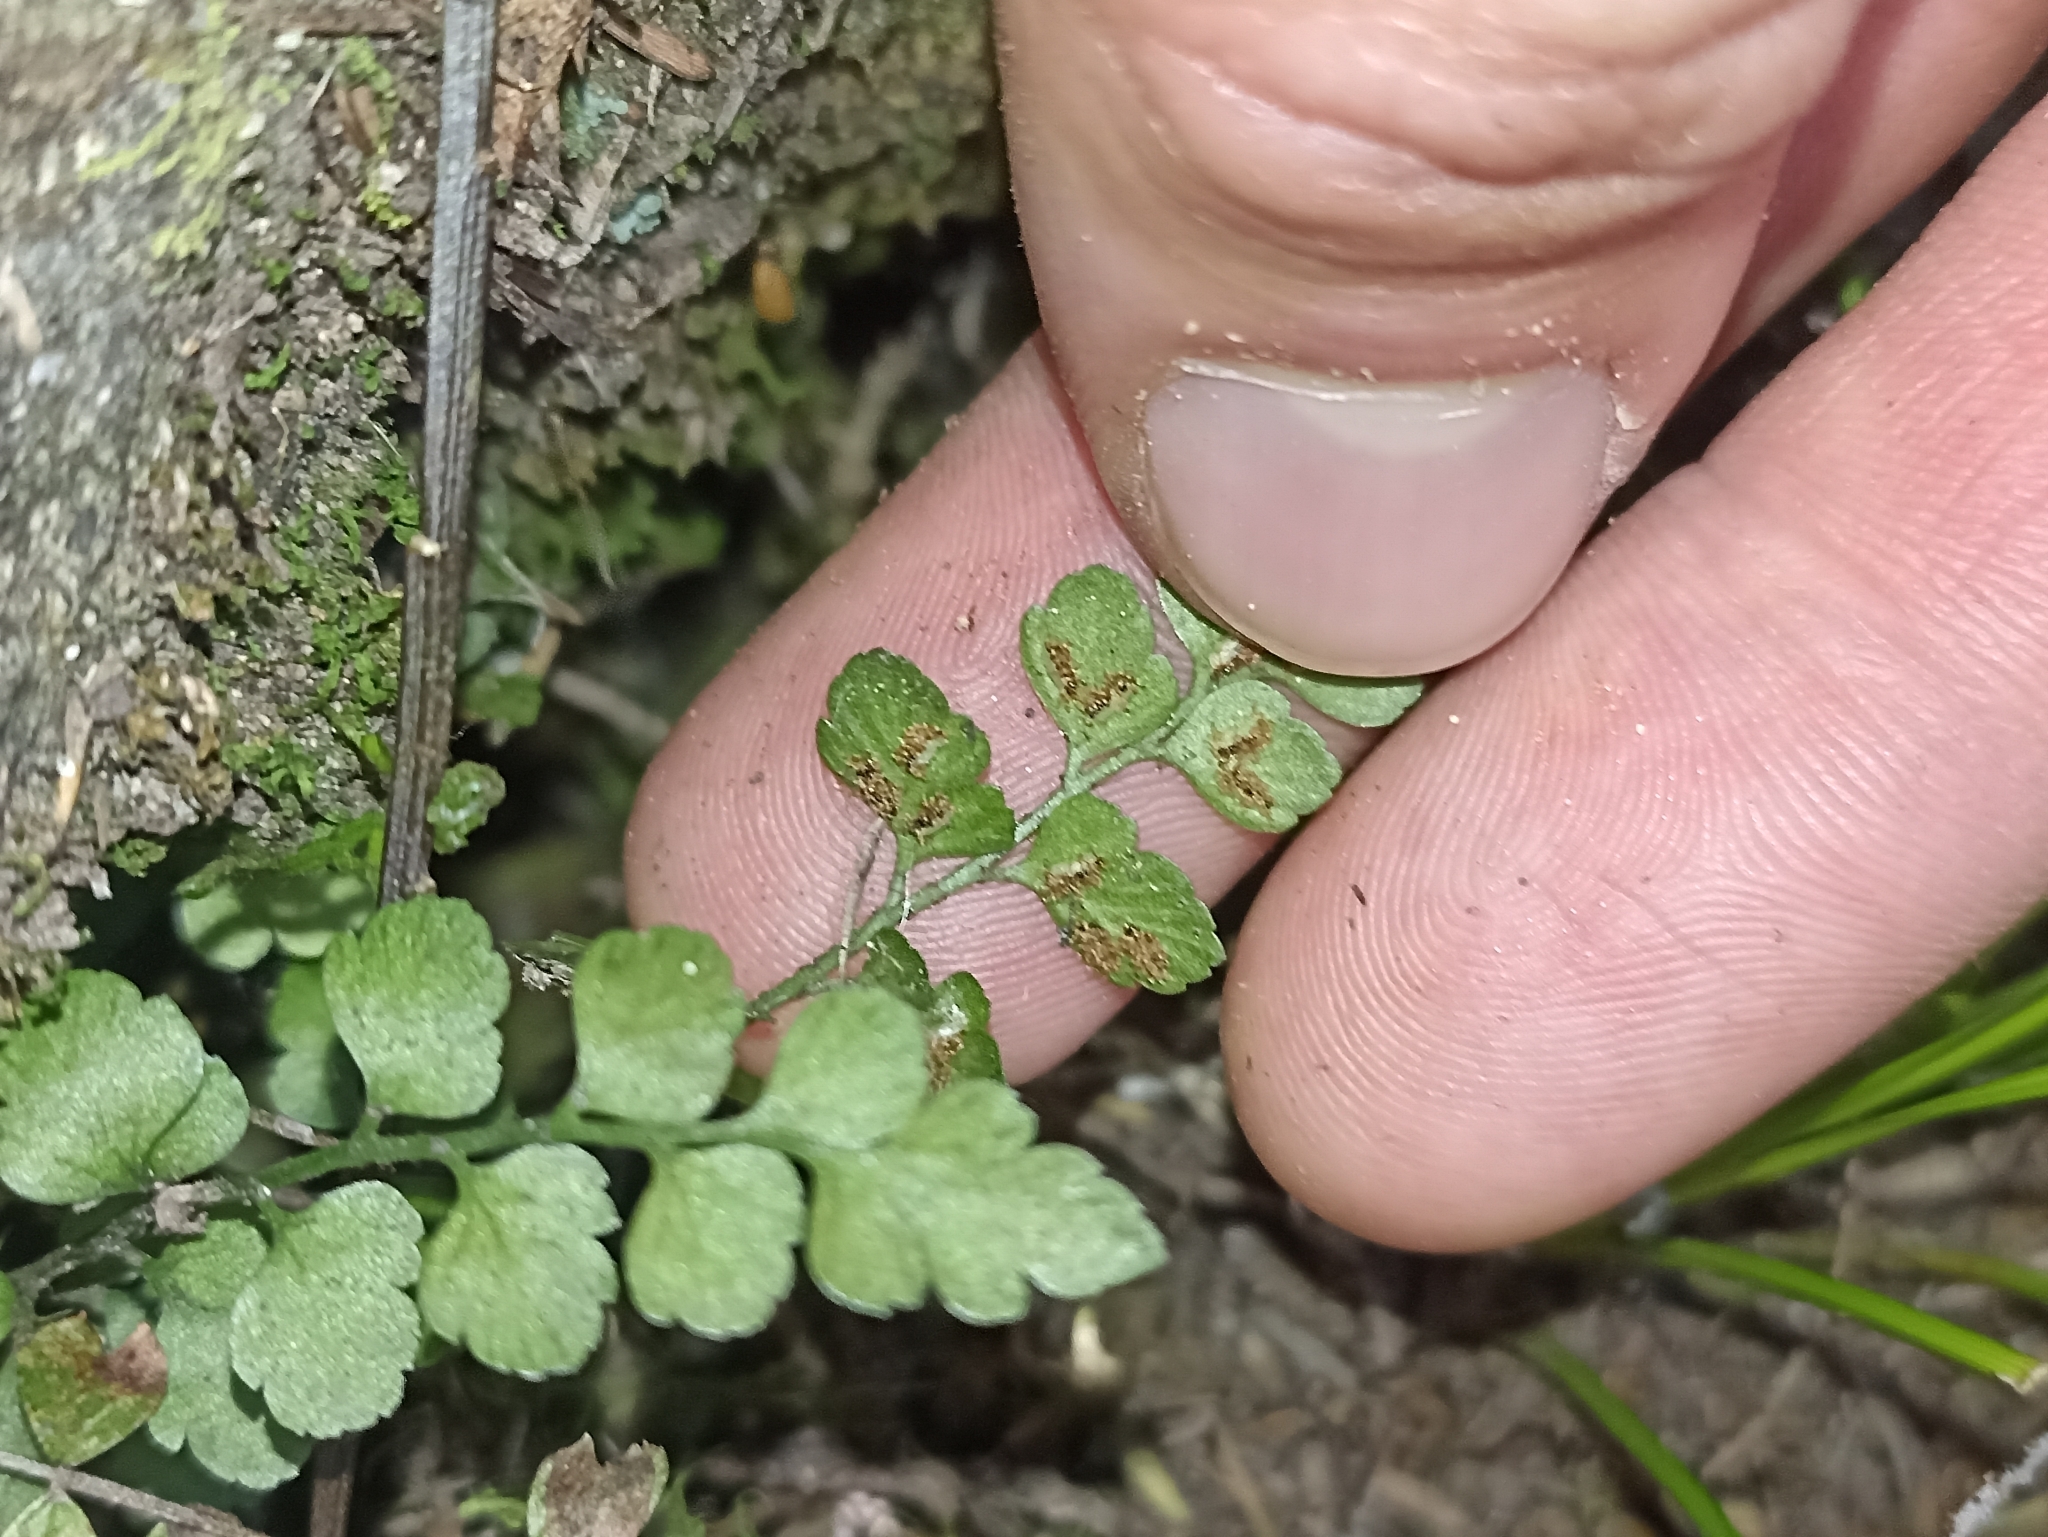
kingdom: Plantae
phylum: Tracheophyta
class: Polypodiopsida
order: Polypodiales
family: Aspleniaceae
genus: Asplenium
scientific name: Asplenium hookerianum
